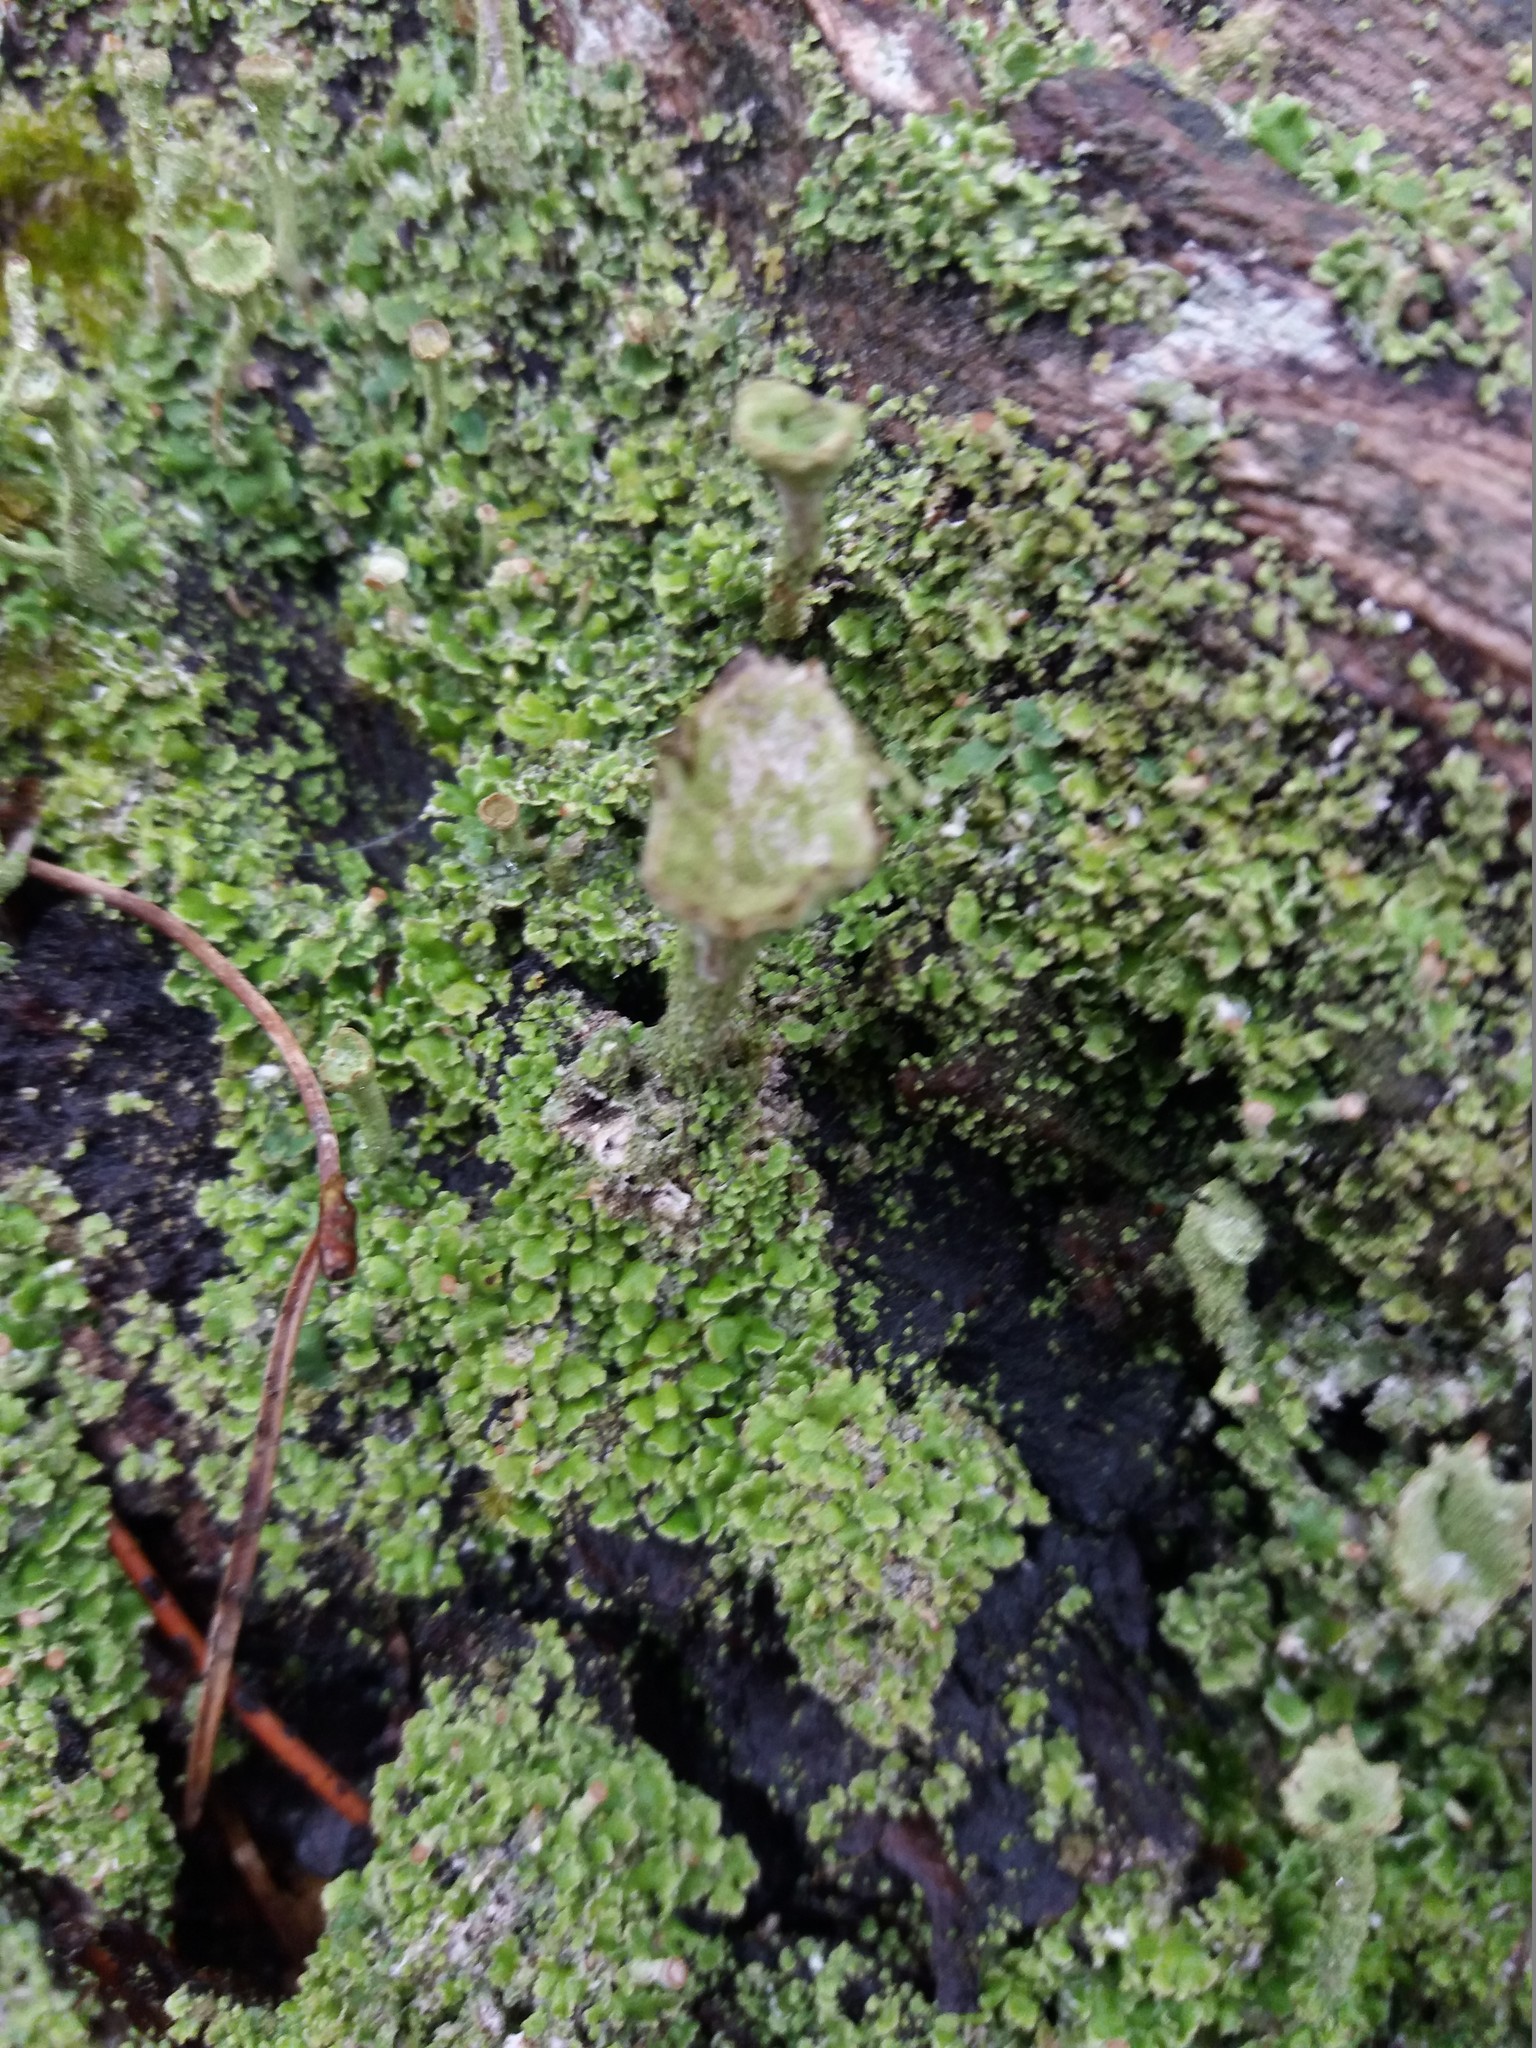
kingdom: Fungi
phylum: Ascomycota
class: Lecanoromycetes
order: Lecanorales
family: Cladoniaceae
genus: Cladonia
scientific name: Cladonia
